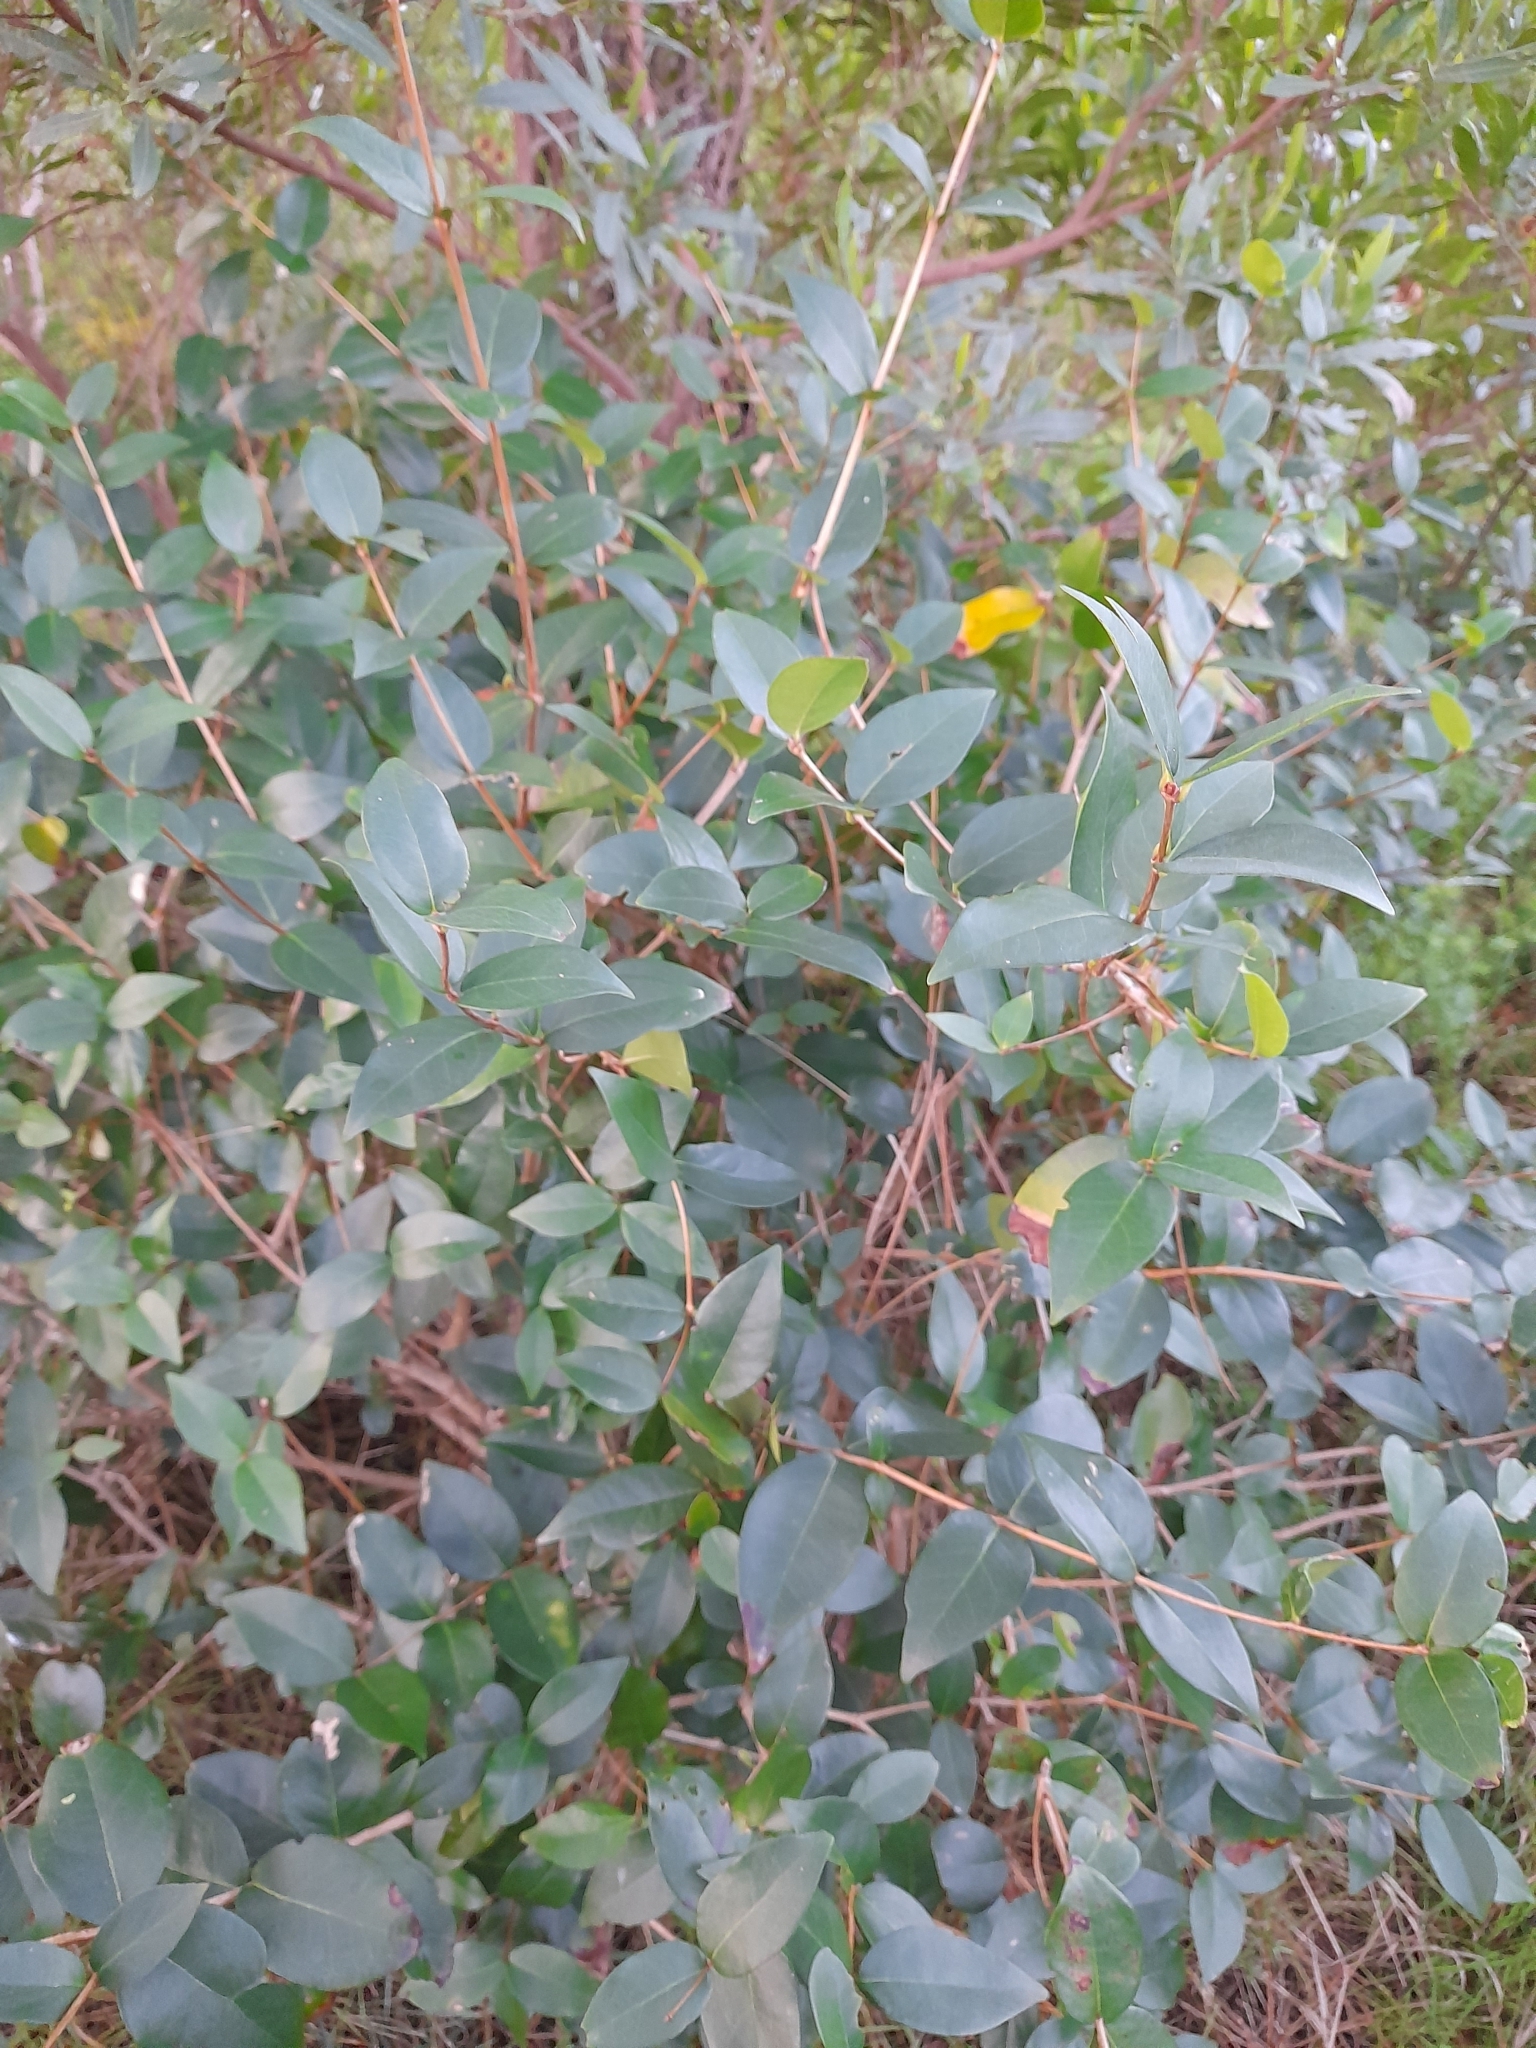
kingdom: Plantae
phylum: Tracheophyta
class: Magnoliopsida
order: Myrtales
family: Myrtaceae
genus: Eugenia
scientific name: Eugenia uniflora
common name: Surinam cherry
